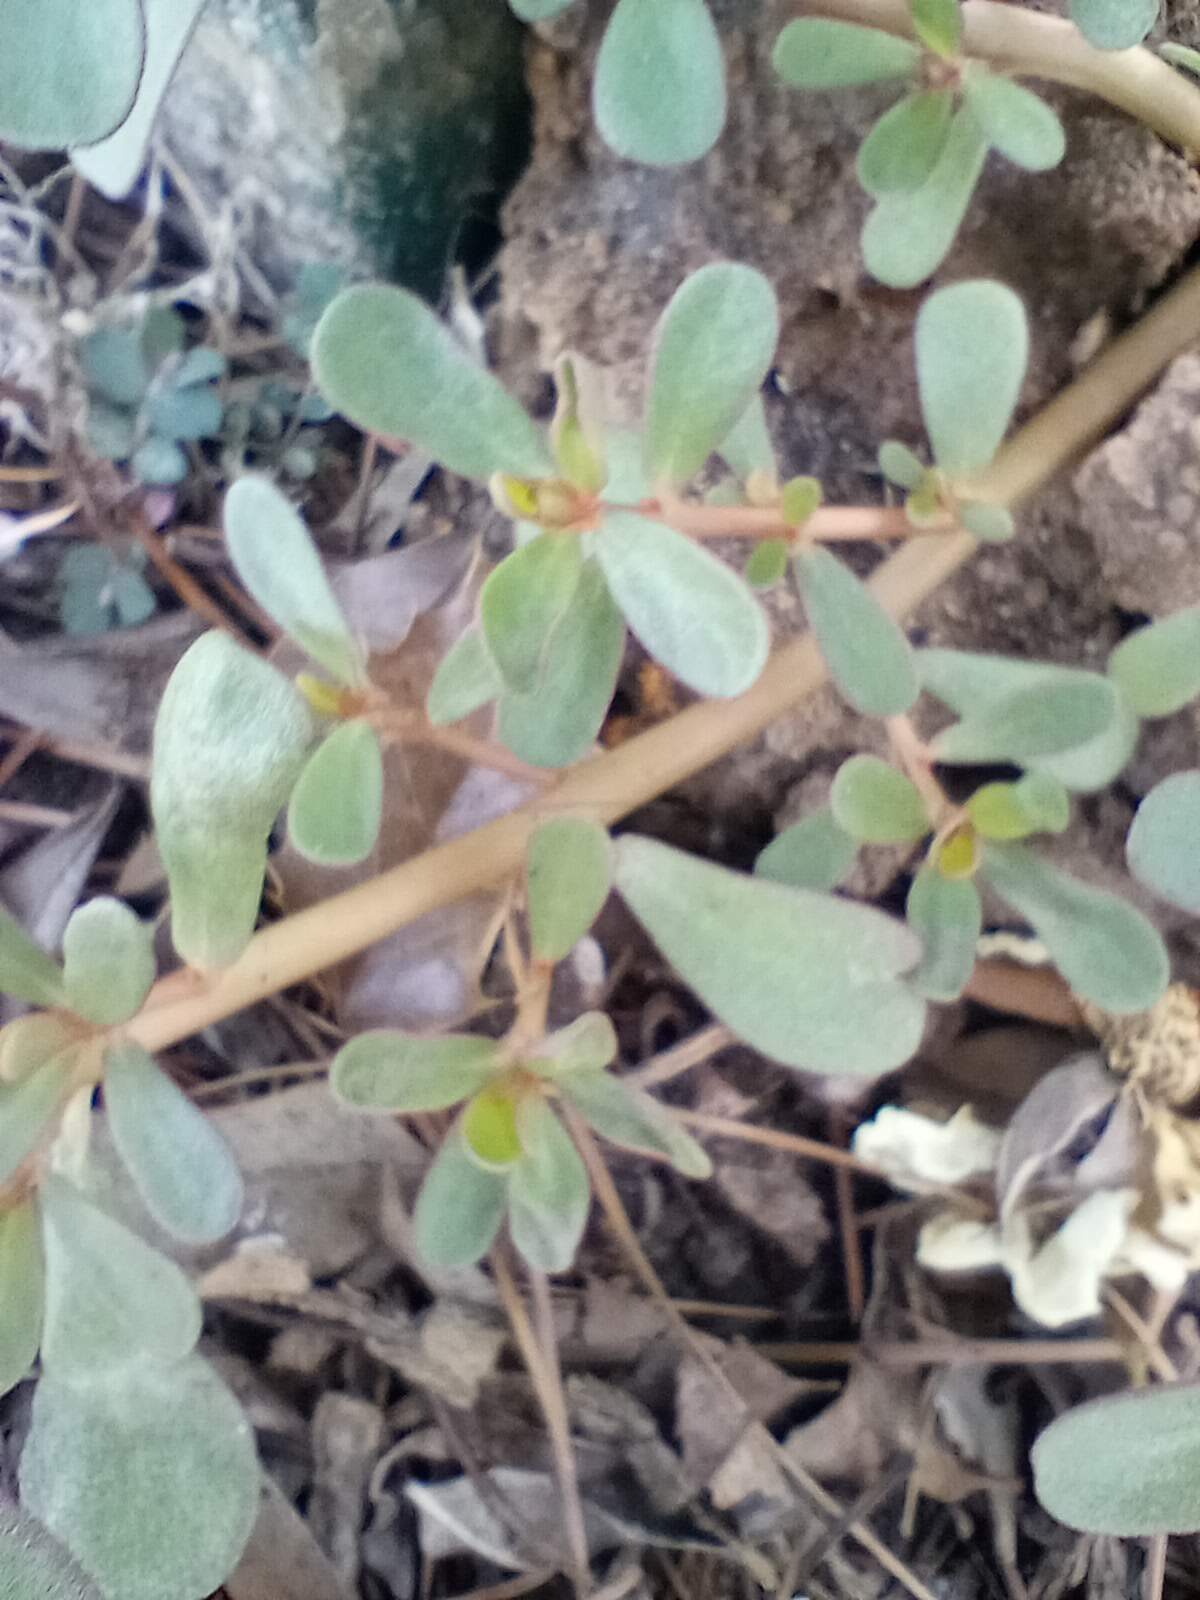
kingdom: Plantae
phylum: Tracheophyta
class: Magnoliopsida
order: Caryophyllales
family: Portulacaceae
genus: Portulaca
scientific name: Portulaca oleracea
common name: Common purslane
